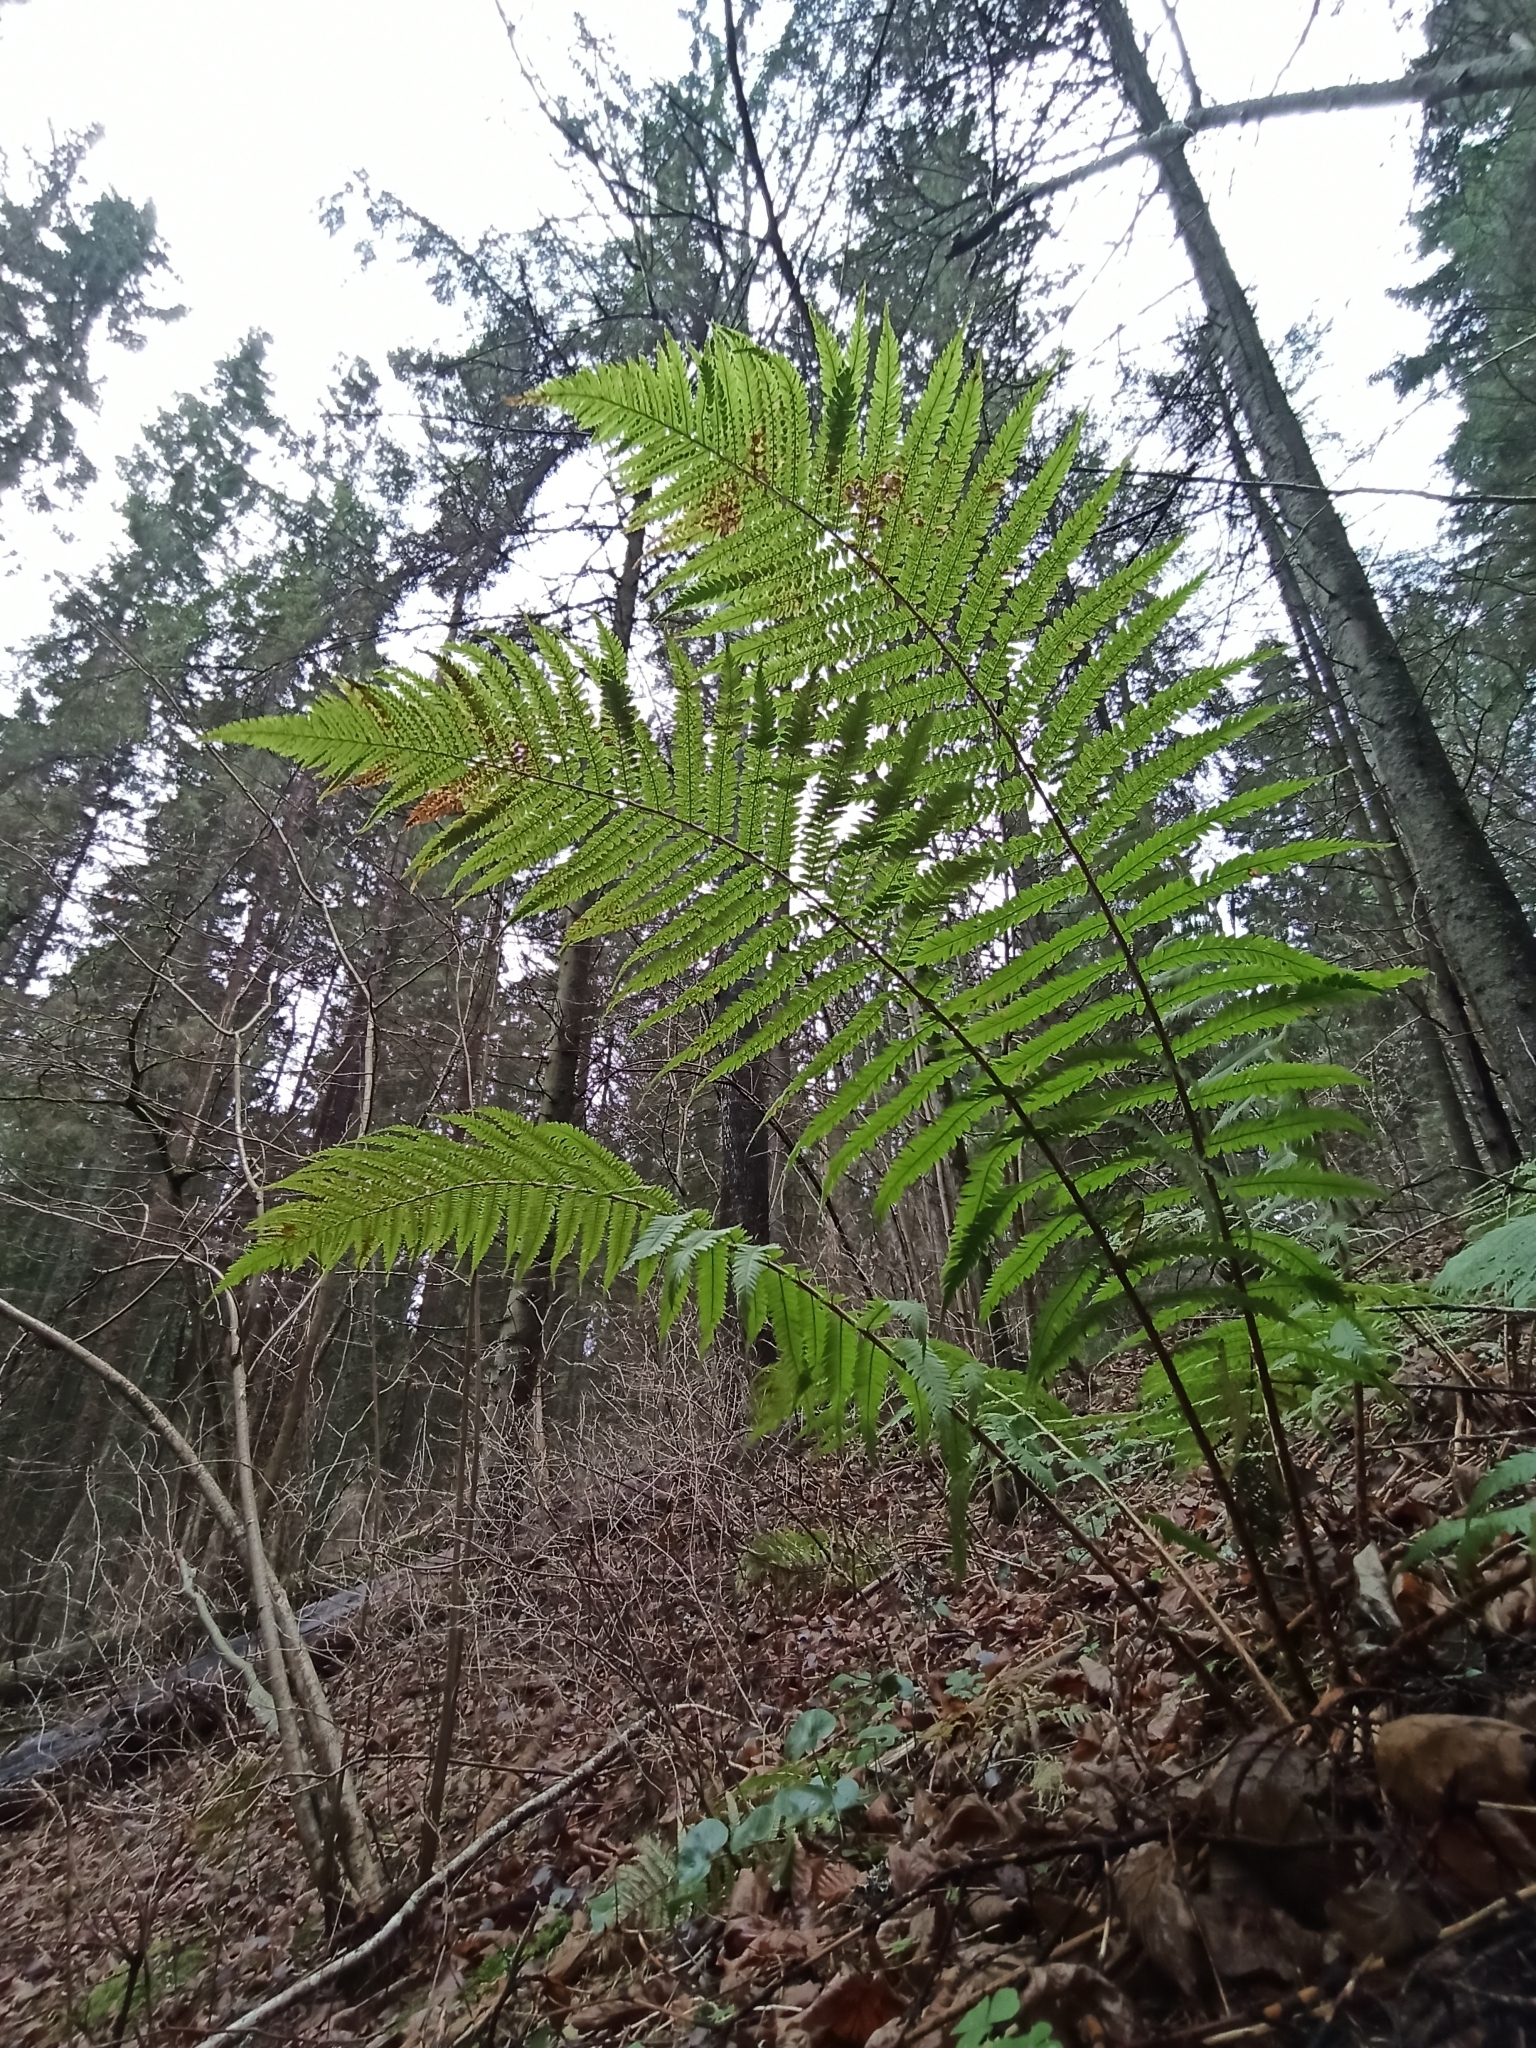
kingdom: Plantae
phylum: Tracheophyta
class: Polypodiopsida
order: Polypodiales
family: Dryopteridaceae
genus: Dryopteris
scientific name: Dryopteris filix-mas
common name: Male fern
